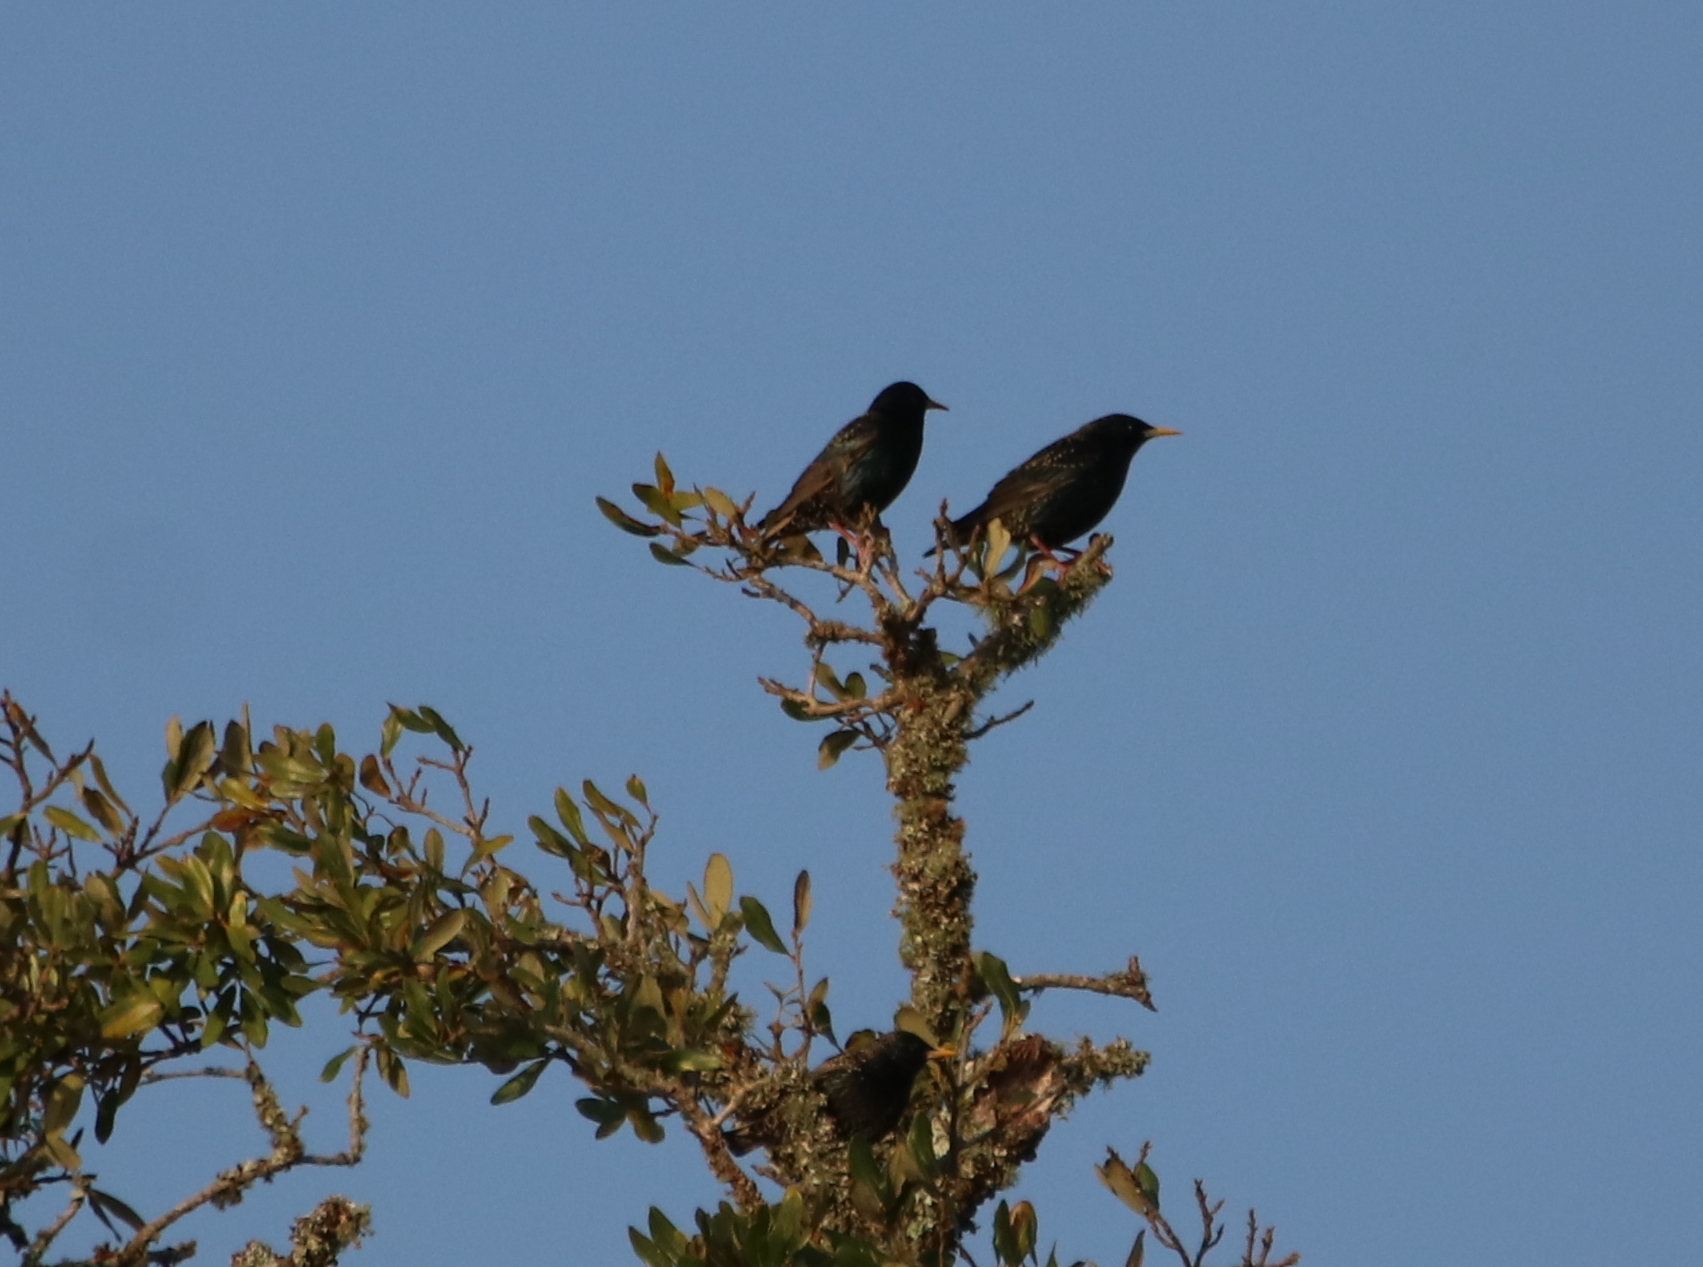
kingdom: Animalia
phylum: Chordata
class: Aves
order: Passeriformes
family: Sturnidae
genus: Sturnus
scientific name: Sturnus vulgaris
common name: Common starling
